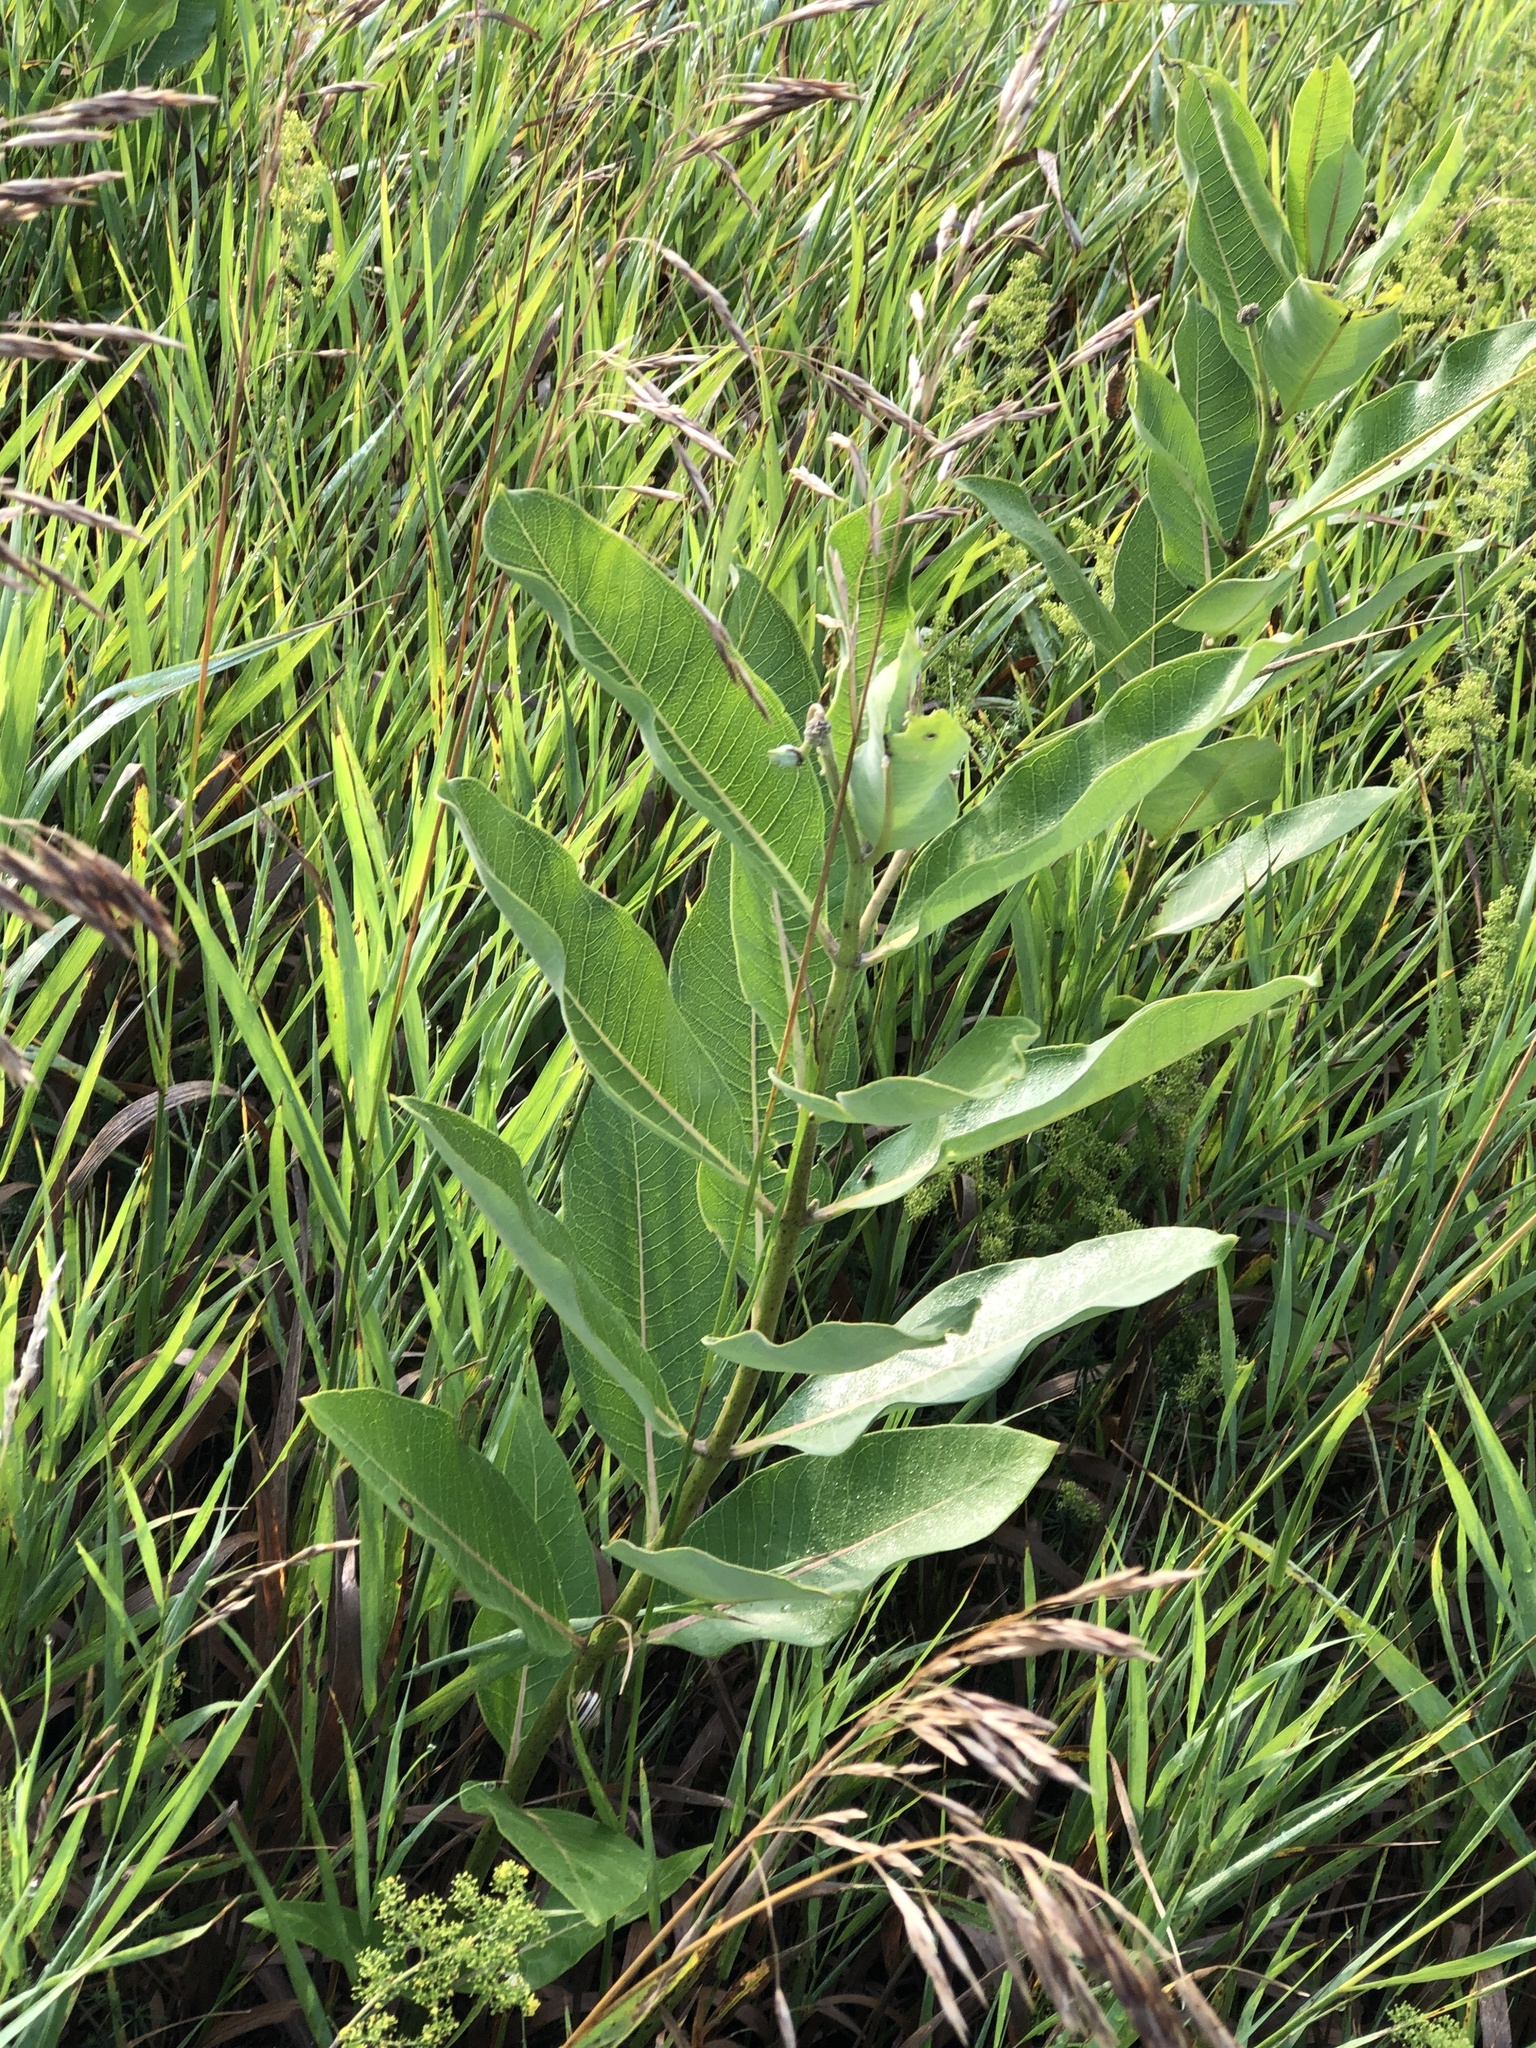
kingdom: Plantae
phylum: Tracheophyta
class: Magnoliopsida
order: Gentianales
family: Apocynaceae
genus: Asclepias
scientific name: Asclepias syriaca
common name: Common milkweed
